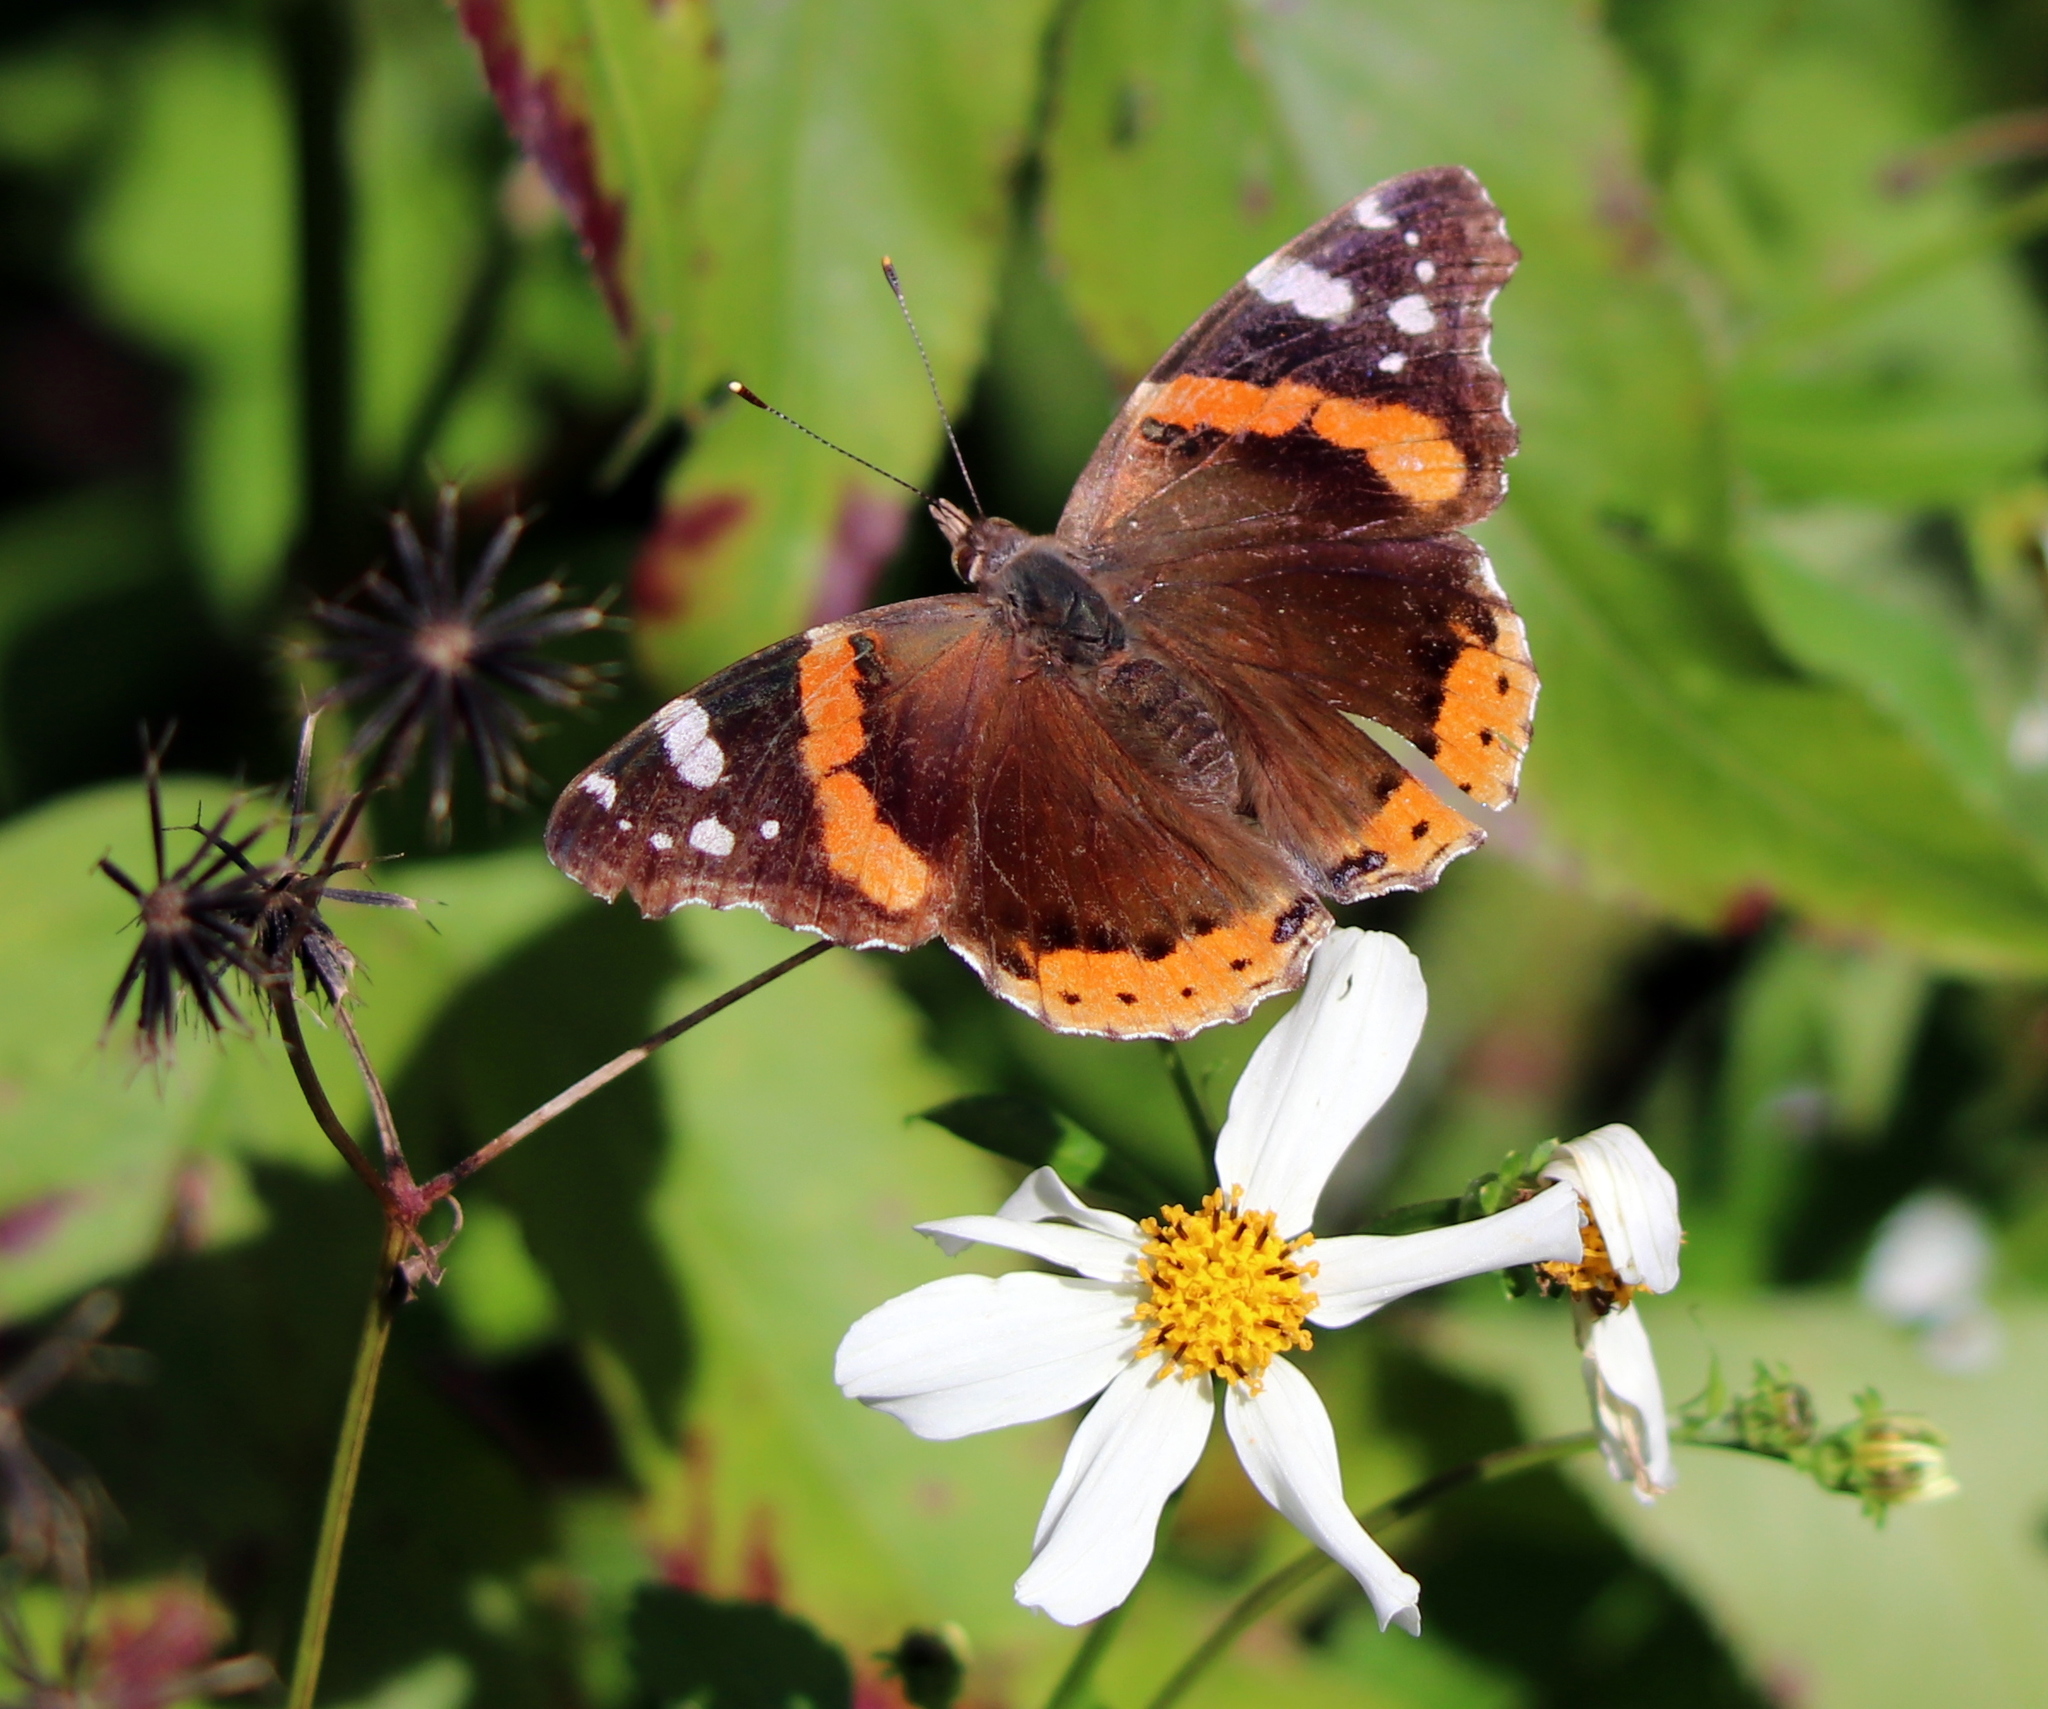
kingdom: Animalia
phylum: Arthropoda
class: Insecta
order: Lepidoptera
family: Nymphalidae
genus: Vanessa
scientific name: Vanessa atalanta
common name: Red admiral
